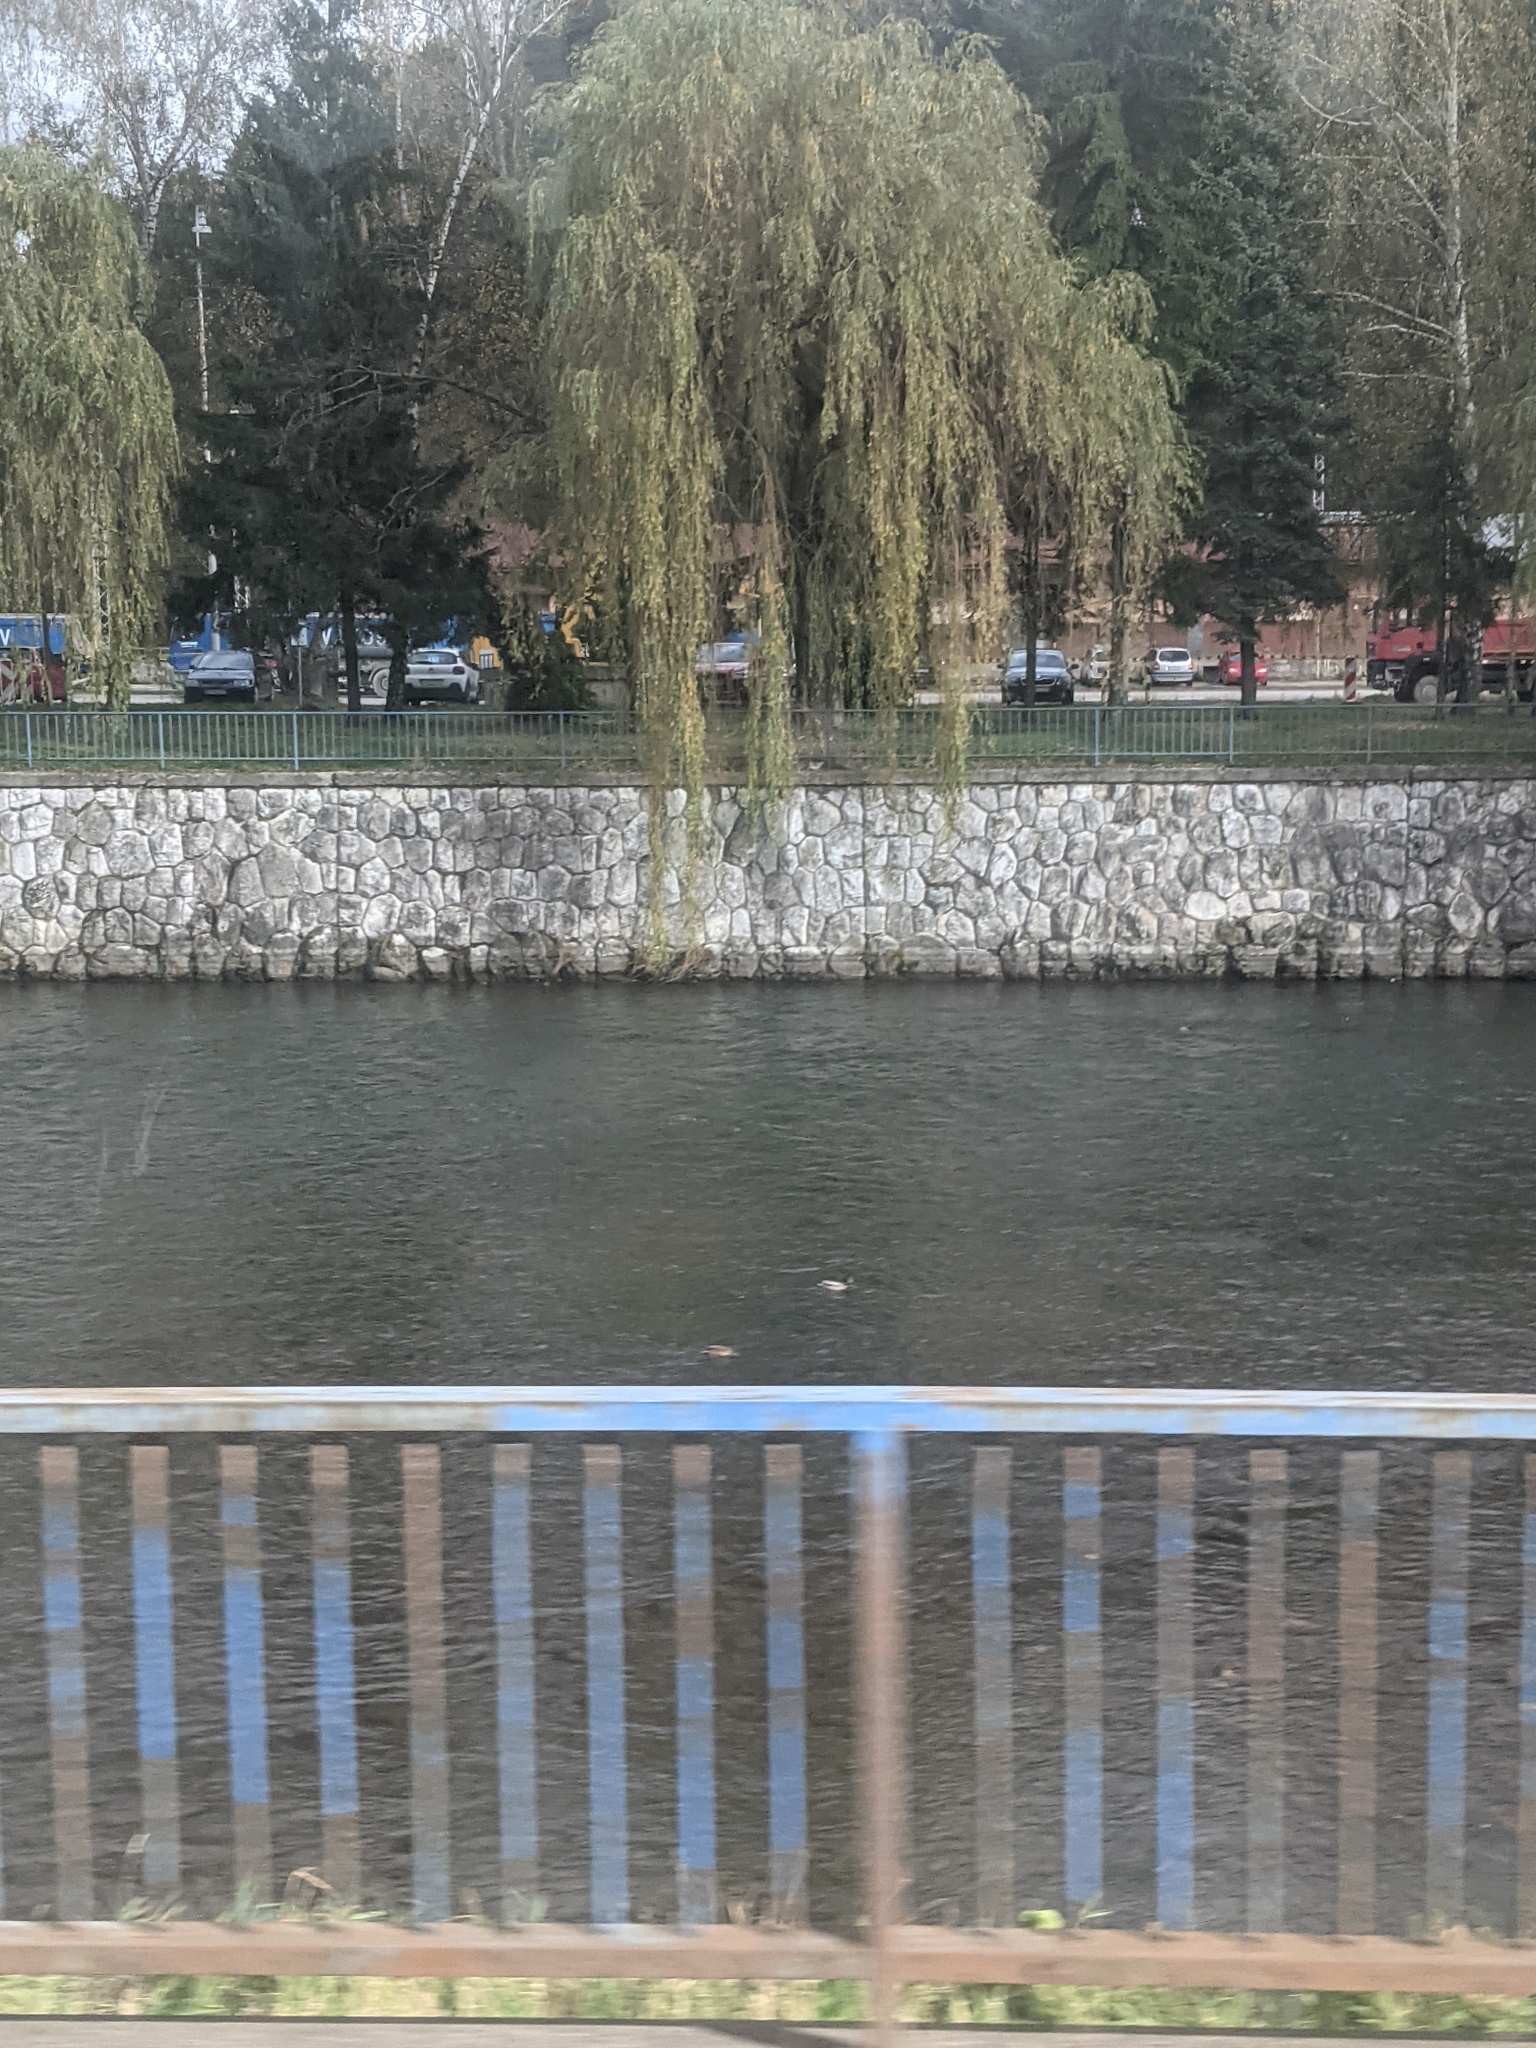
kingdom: Animalia
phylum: Chordata
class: Aves
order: Anseriformes
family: Anatidae
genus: Anas
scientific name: Anas platyrhynchos
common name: Mallard
